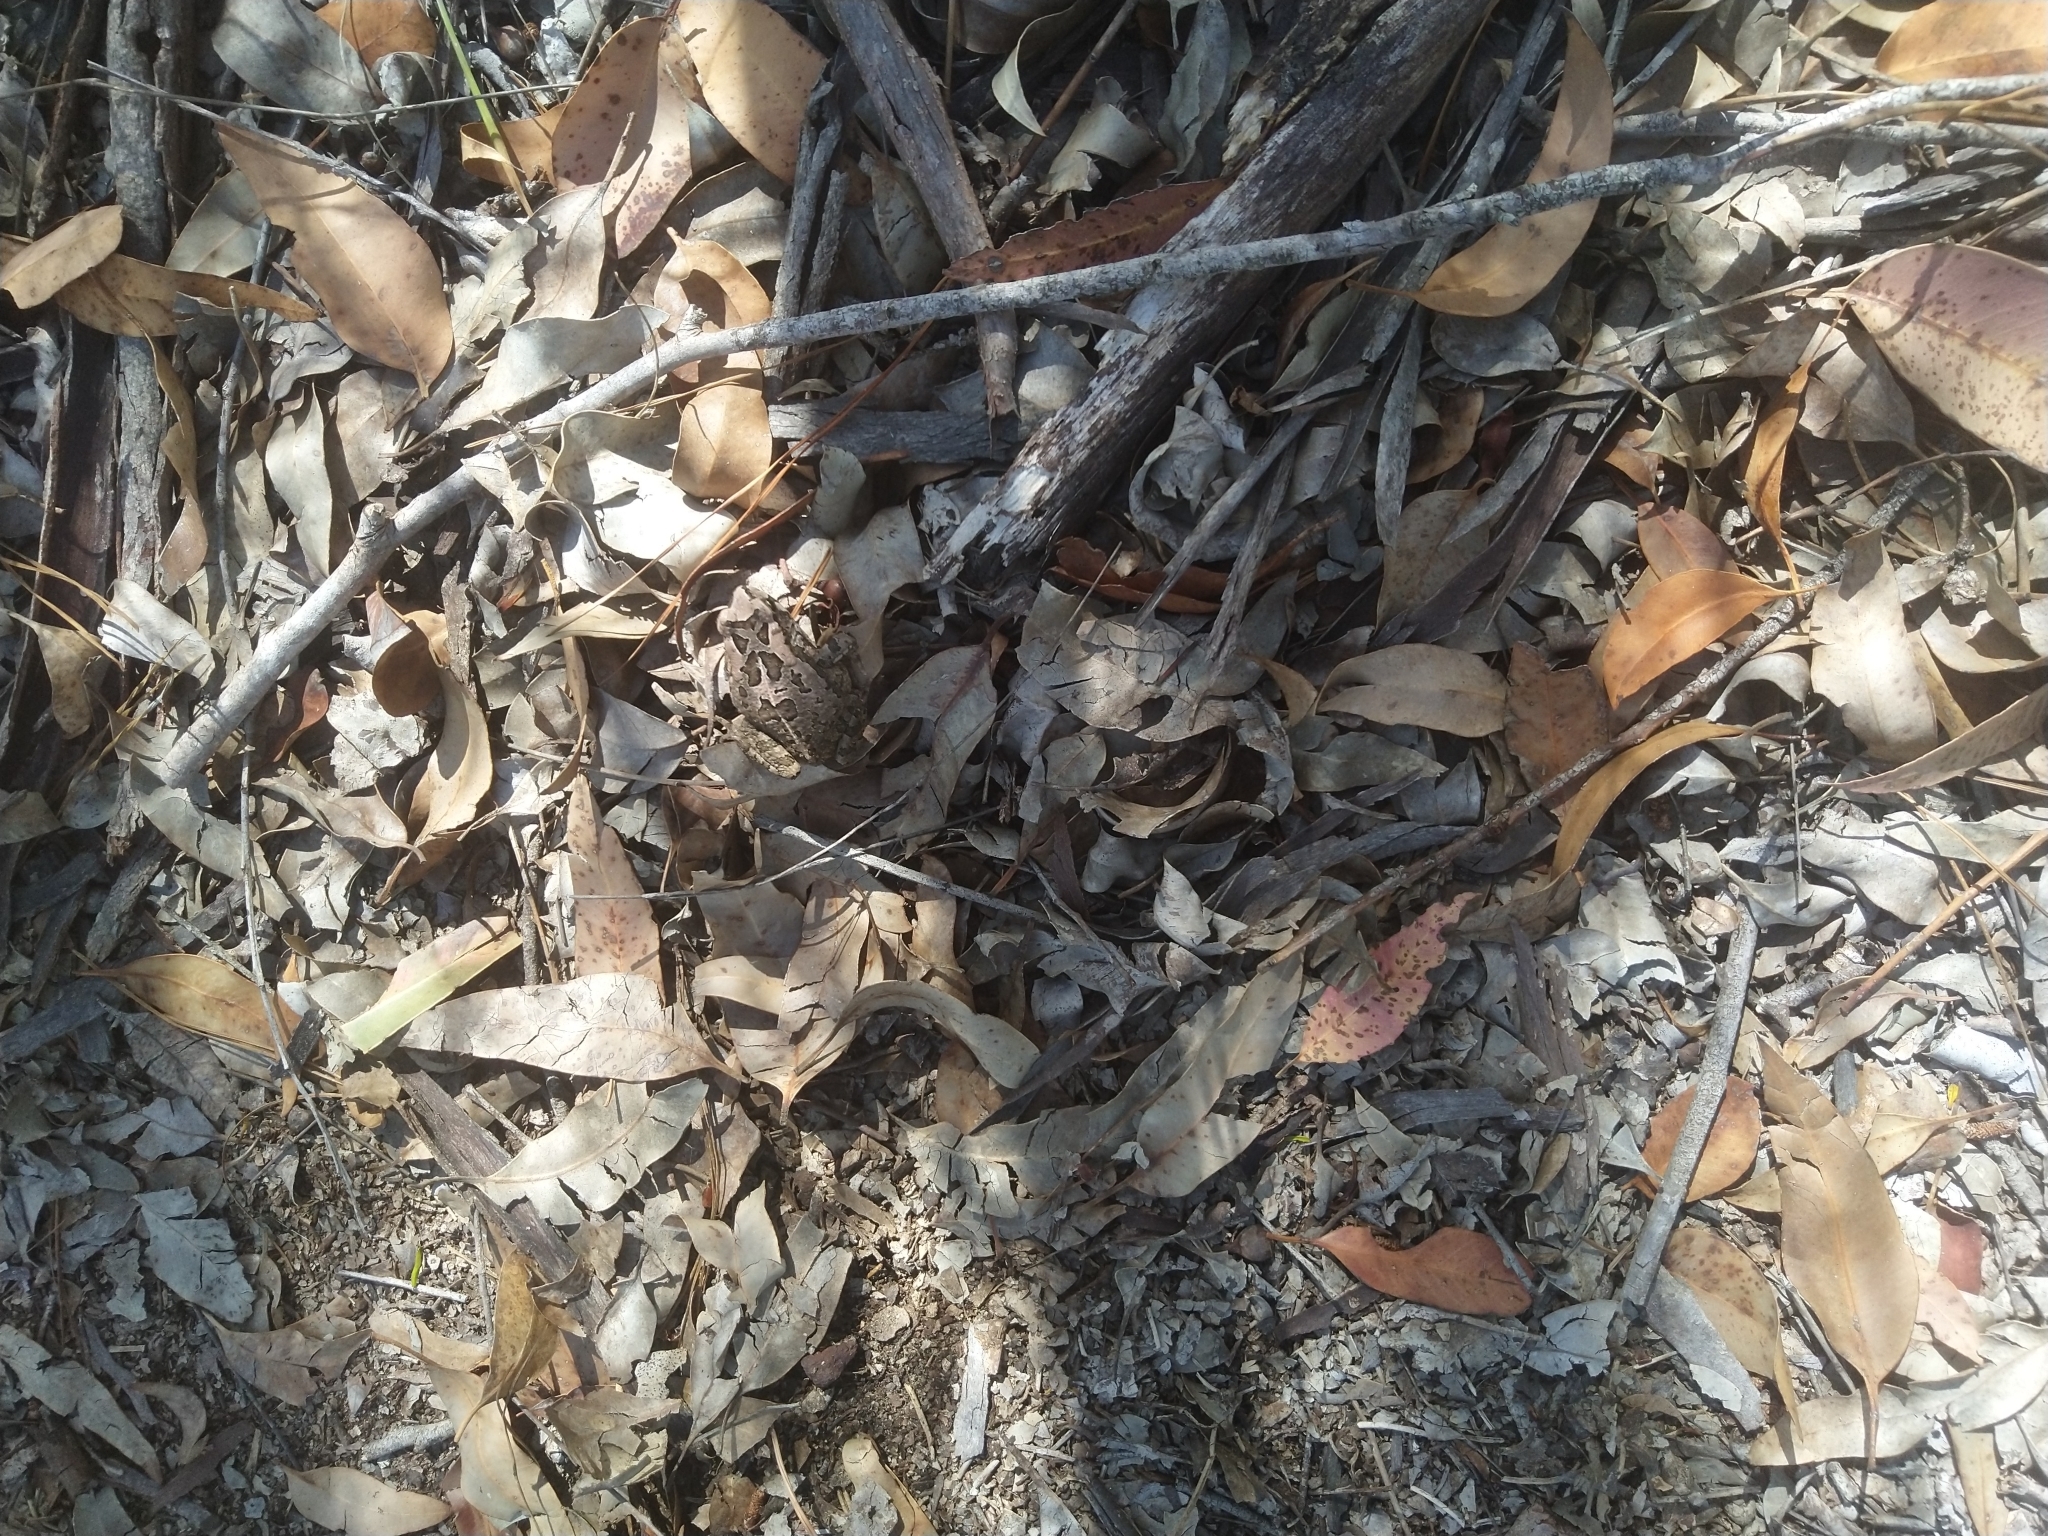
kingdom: Animalia
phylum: Chordata
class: Amphibia
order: Anura
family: Bufonidae
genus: Sclerophrys
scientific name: Sclerophrys capensis
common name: Ranger’s toad
